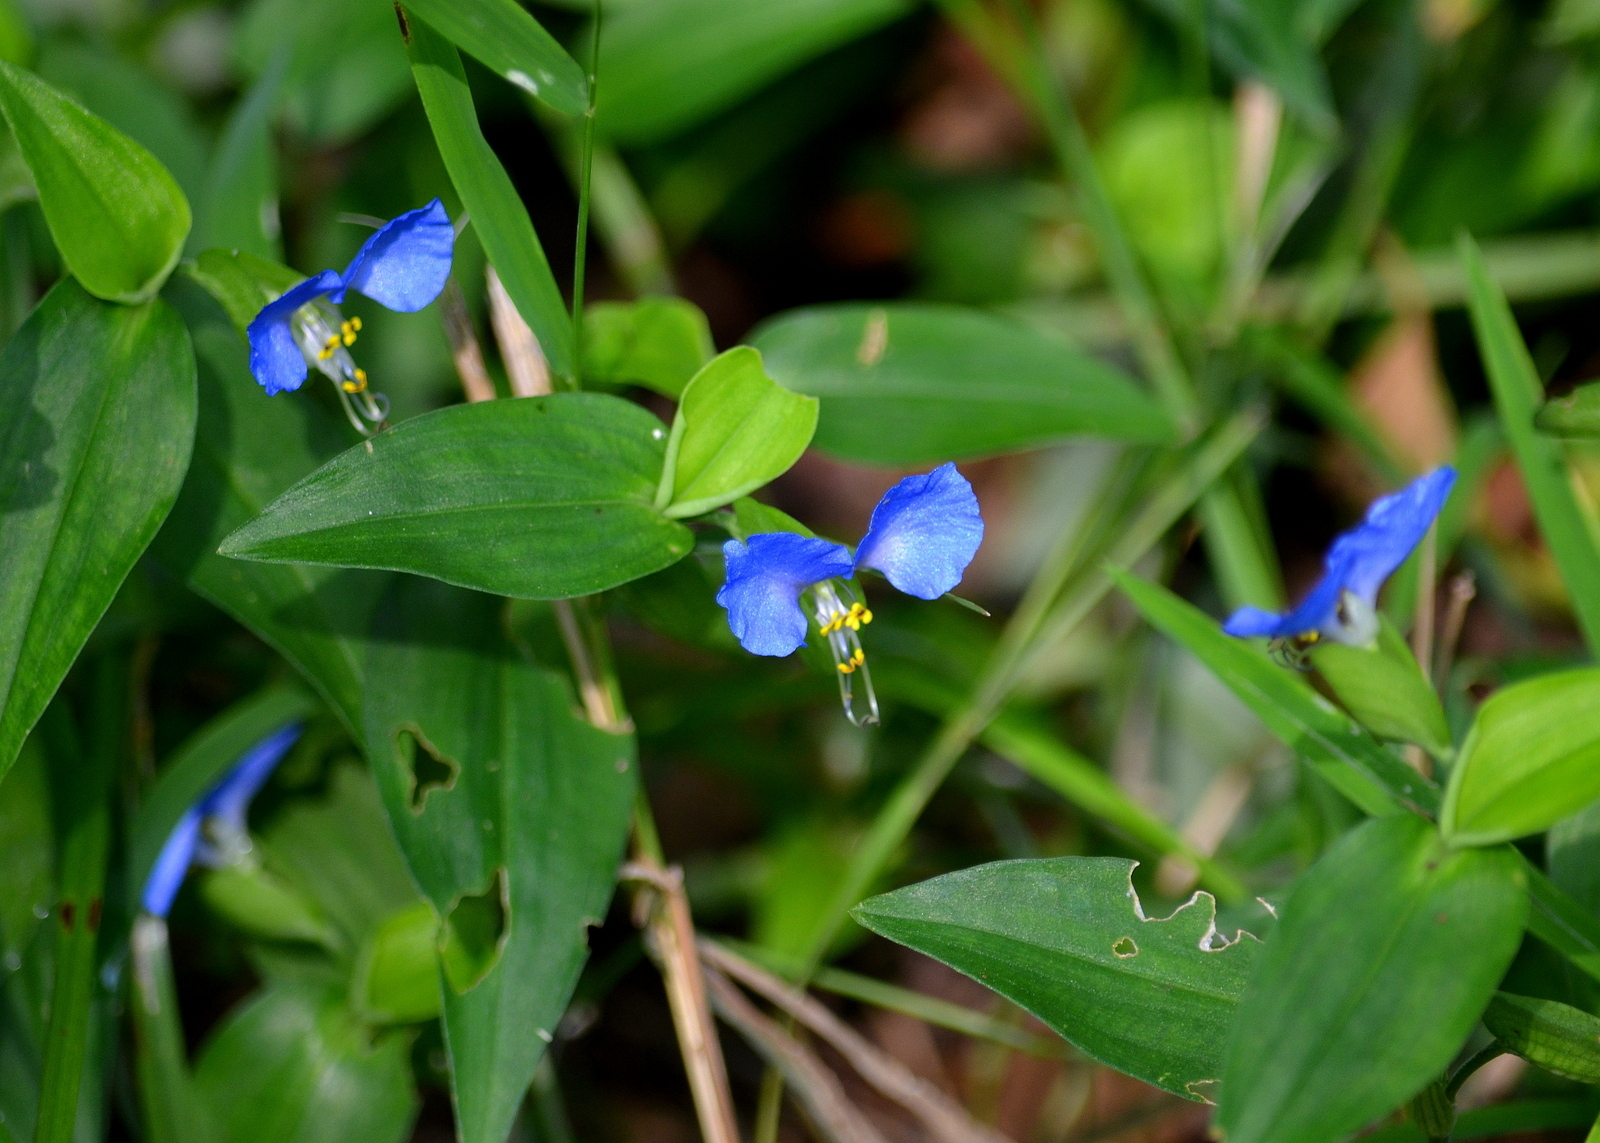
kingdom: Plantae
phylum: Tracheophyta
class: Liliopsida
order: Commelinales
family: Commelinaceae
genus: Commelina
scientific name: Commelina communis
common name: Asiatic dayflower
